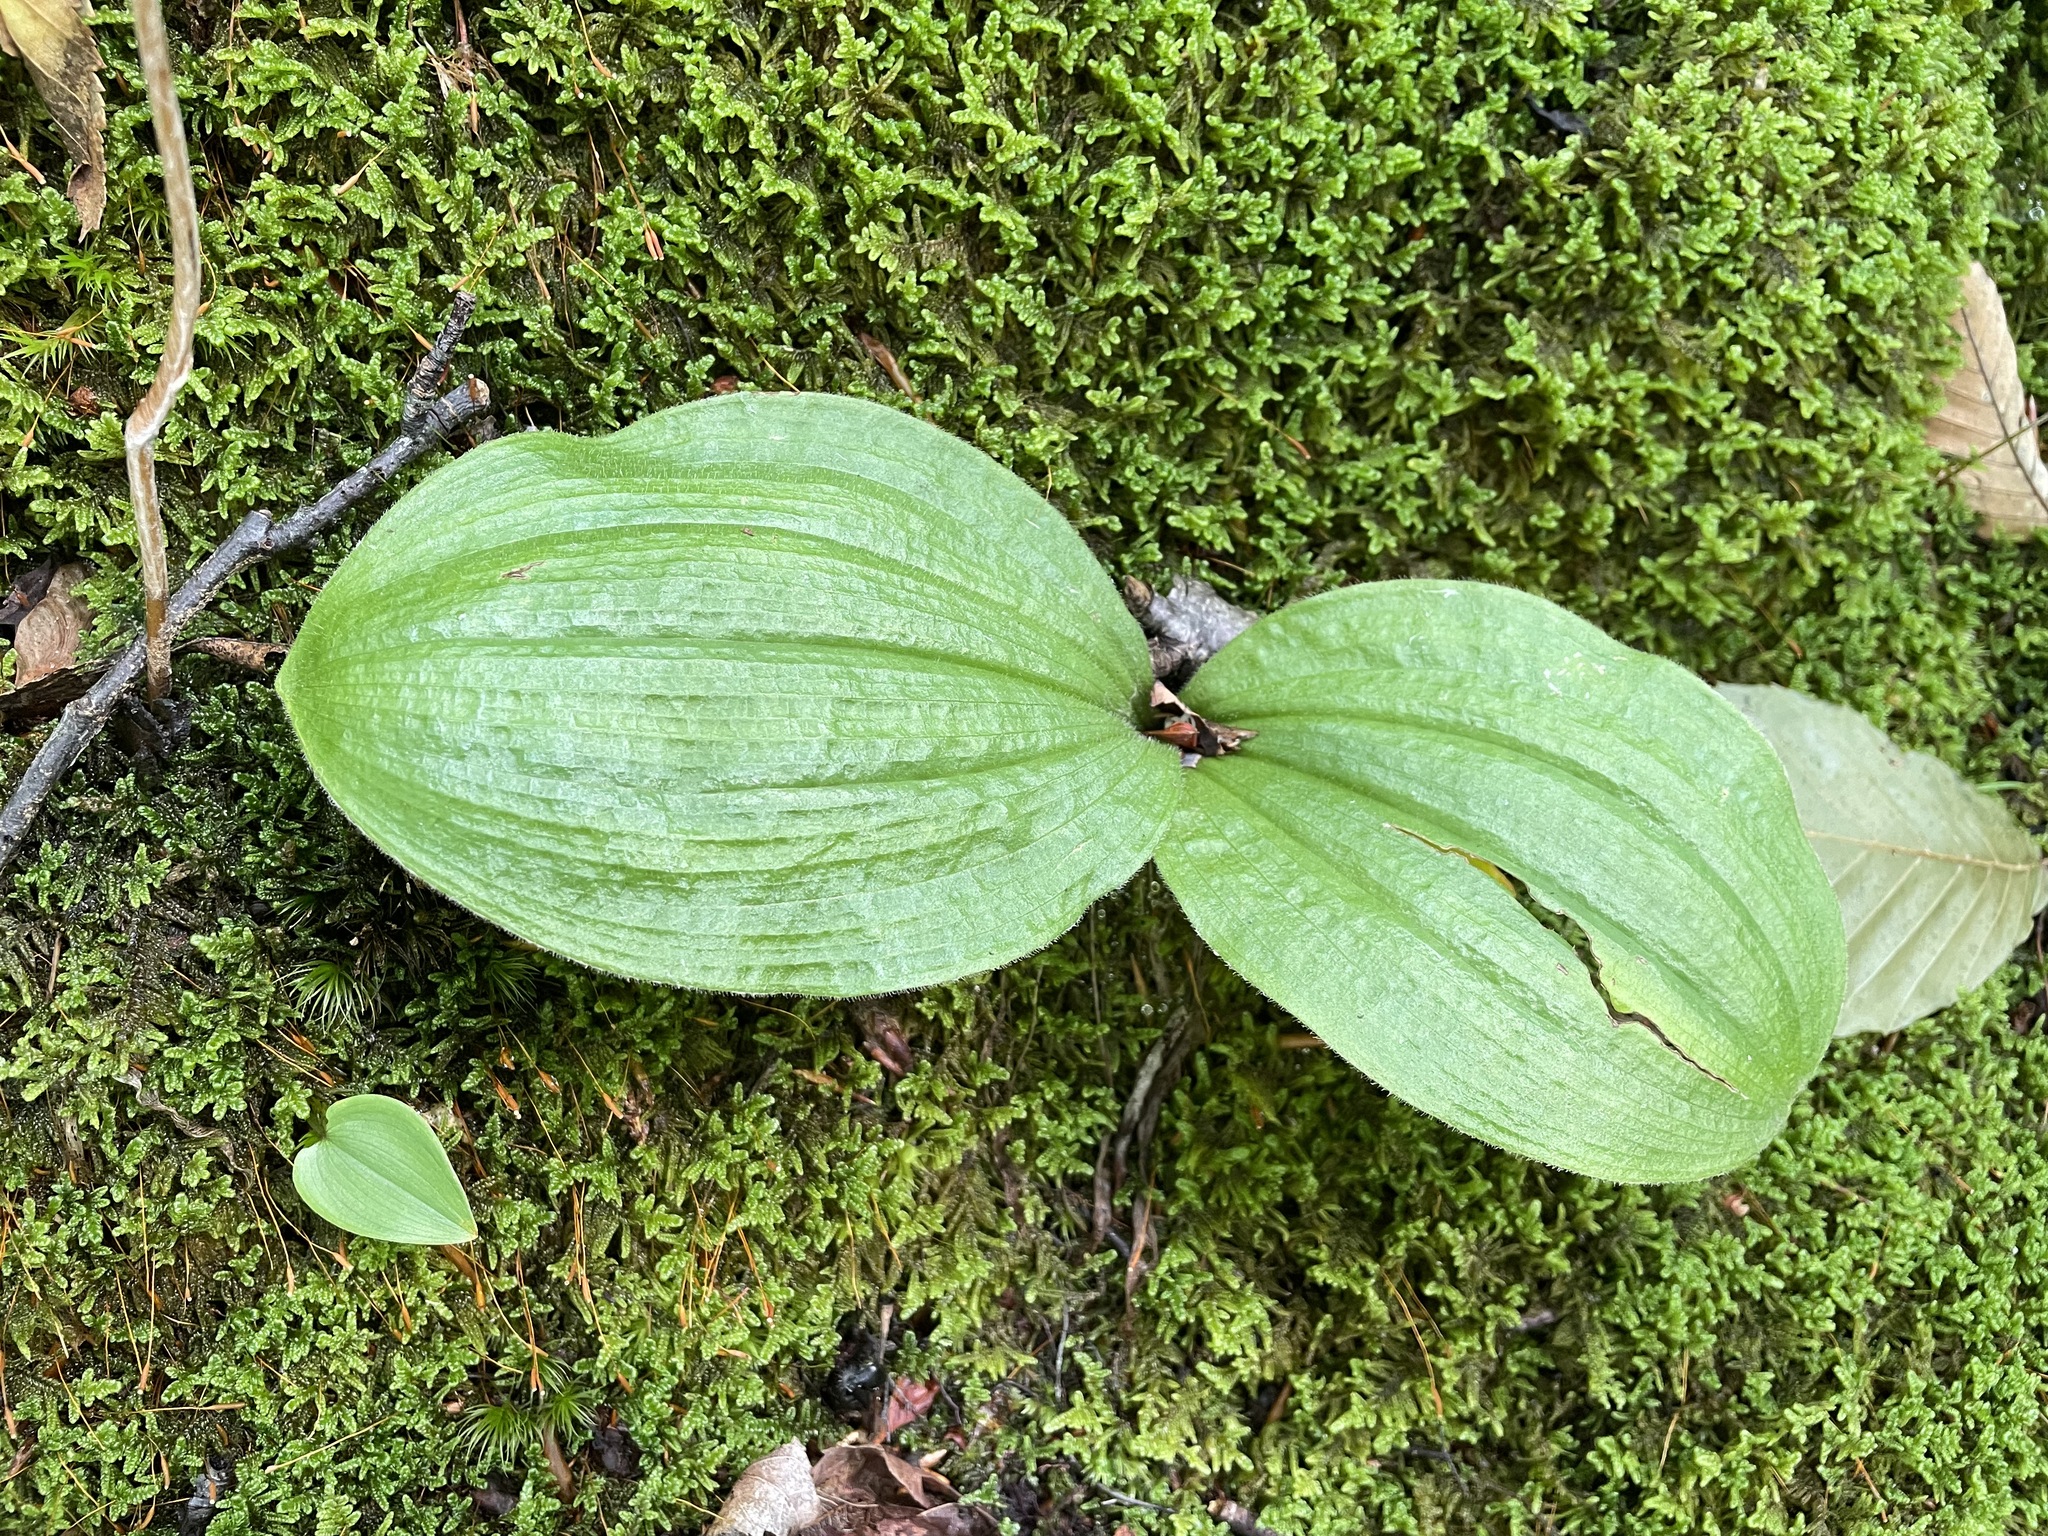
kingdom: Plantae
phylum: Tracheophyta
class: Liliopsida
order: Asparagales
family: Orchidaceae
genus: Cypripedium
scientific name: Cypripedium acaule
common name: Pink lady's-slipper
